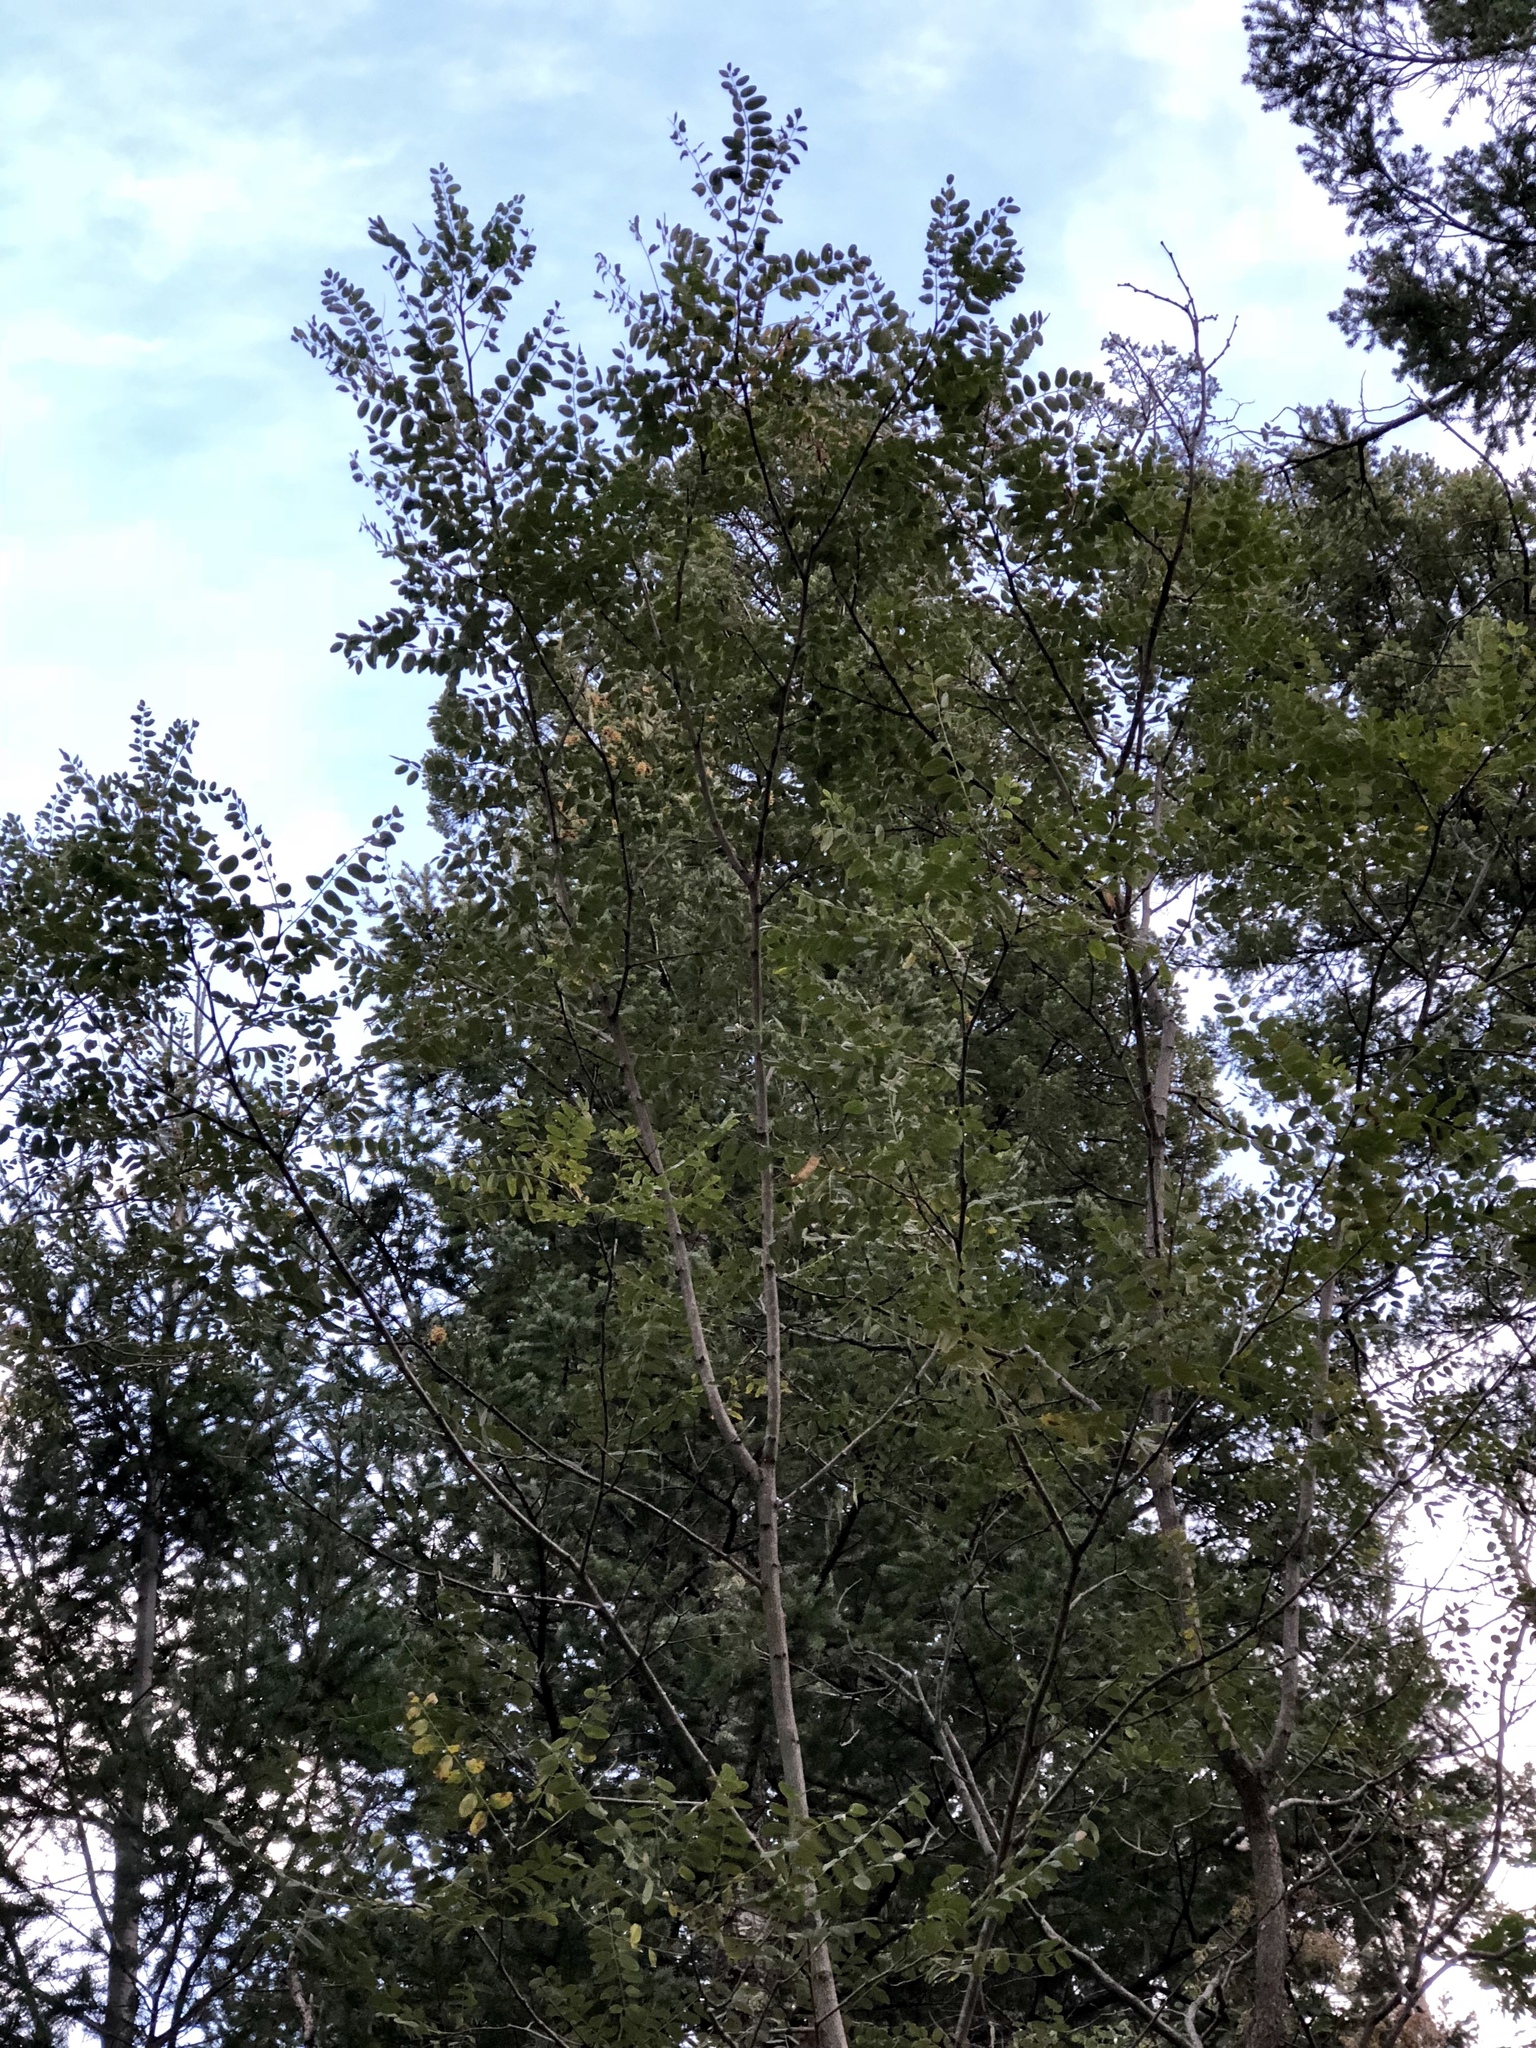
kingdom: Plantae
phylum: Tracheophyta
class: Magnoliopsida
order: Malpighiales
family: Salicaceae
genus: Populus
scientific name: Populus tremuloides
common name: Quaking aspen
